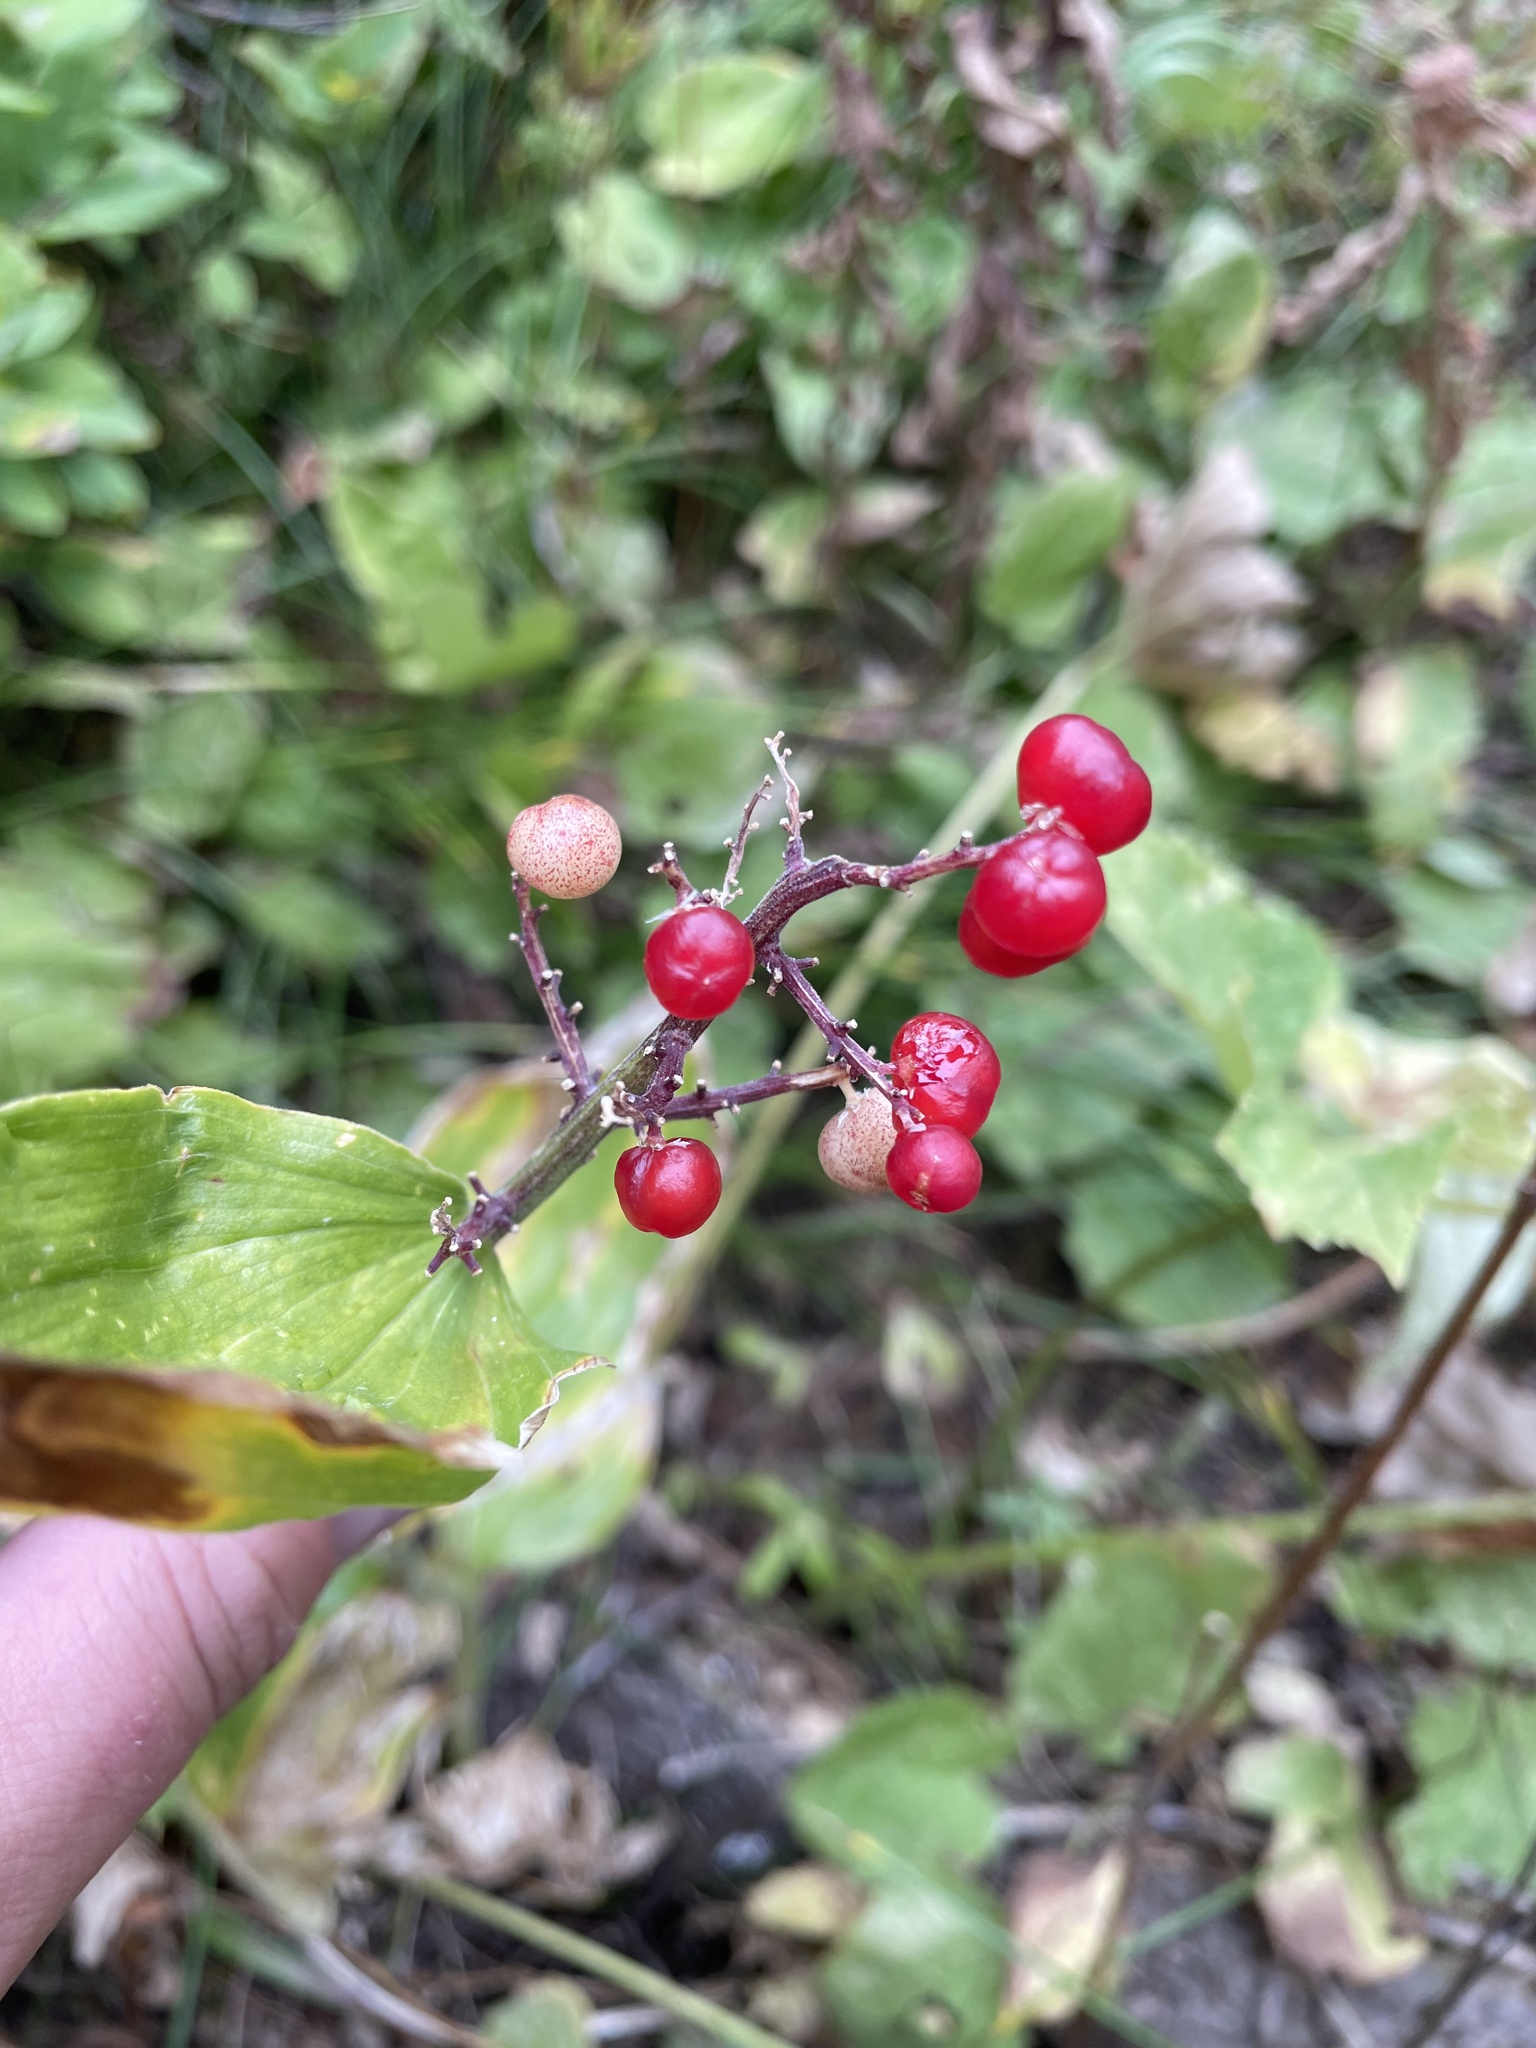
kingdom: Plantae
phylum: Tracheophyta
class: Liliopsida
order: Asparagales
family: Asparagaceae
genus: Maianthemum
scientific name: Maianthemum racemosum
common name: False spikenard
